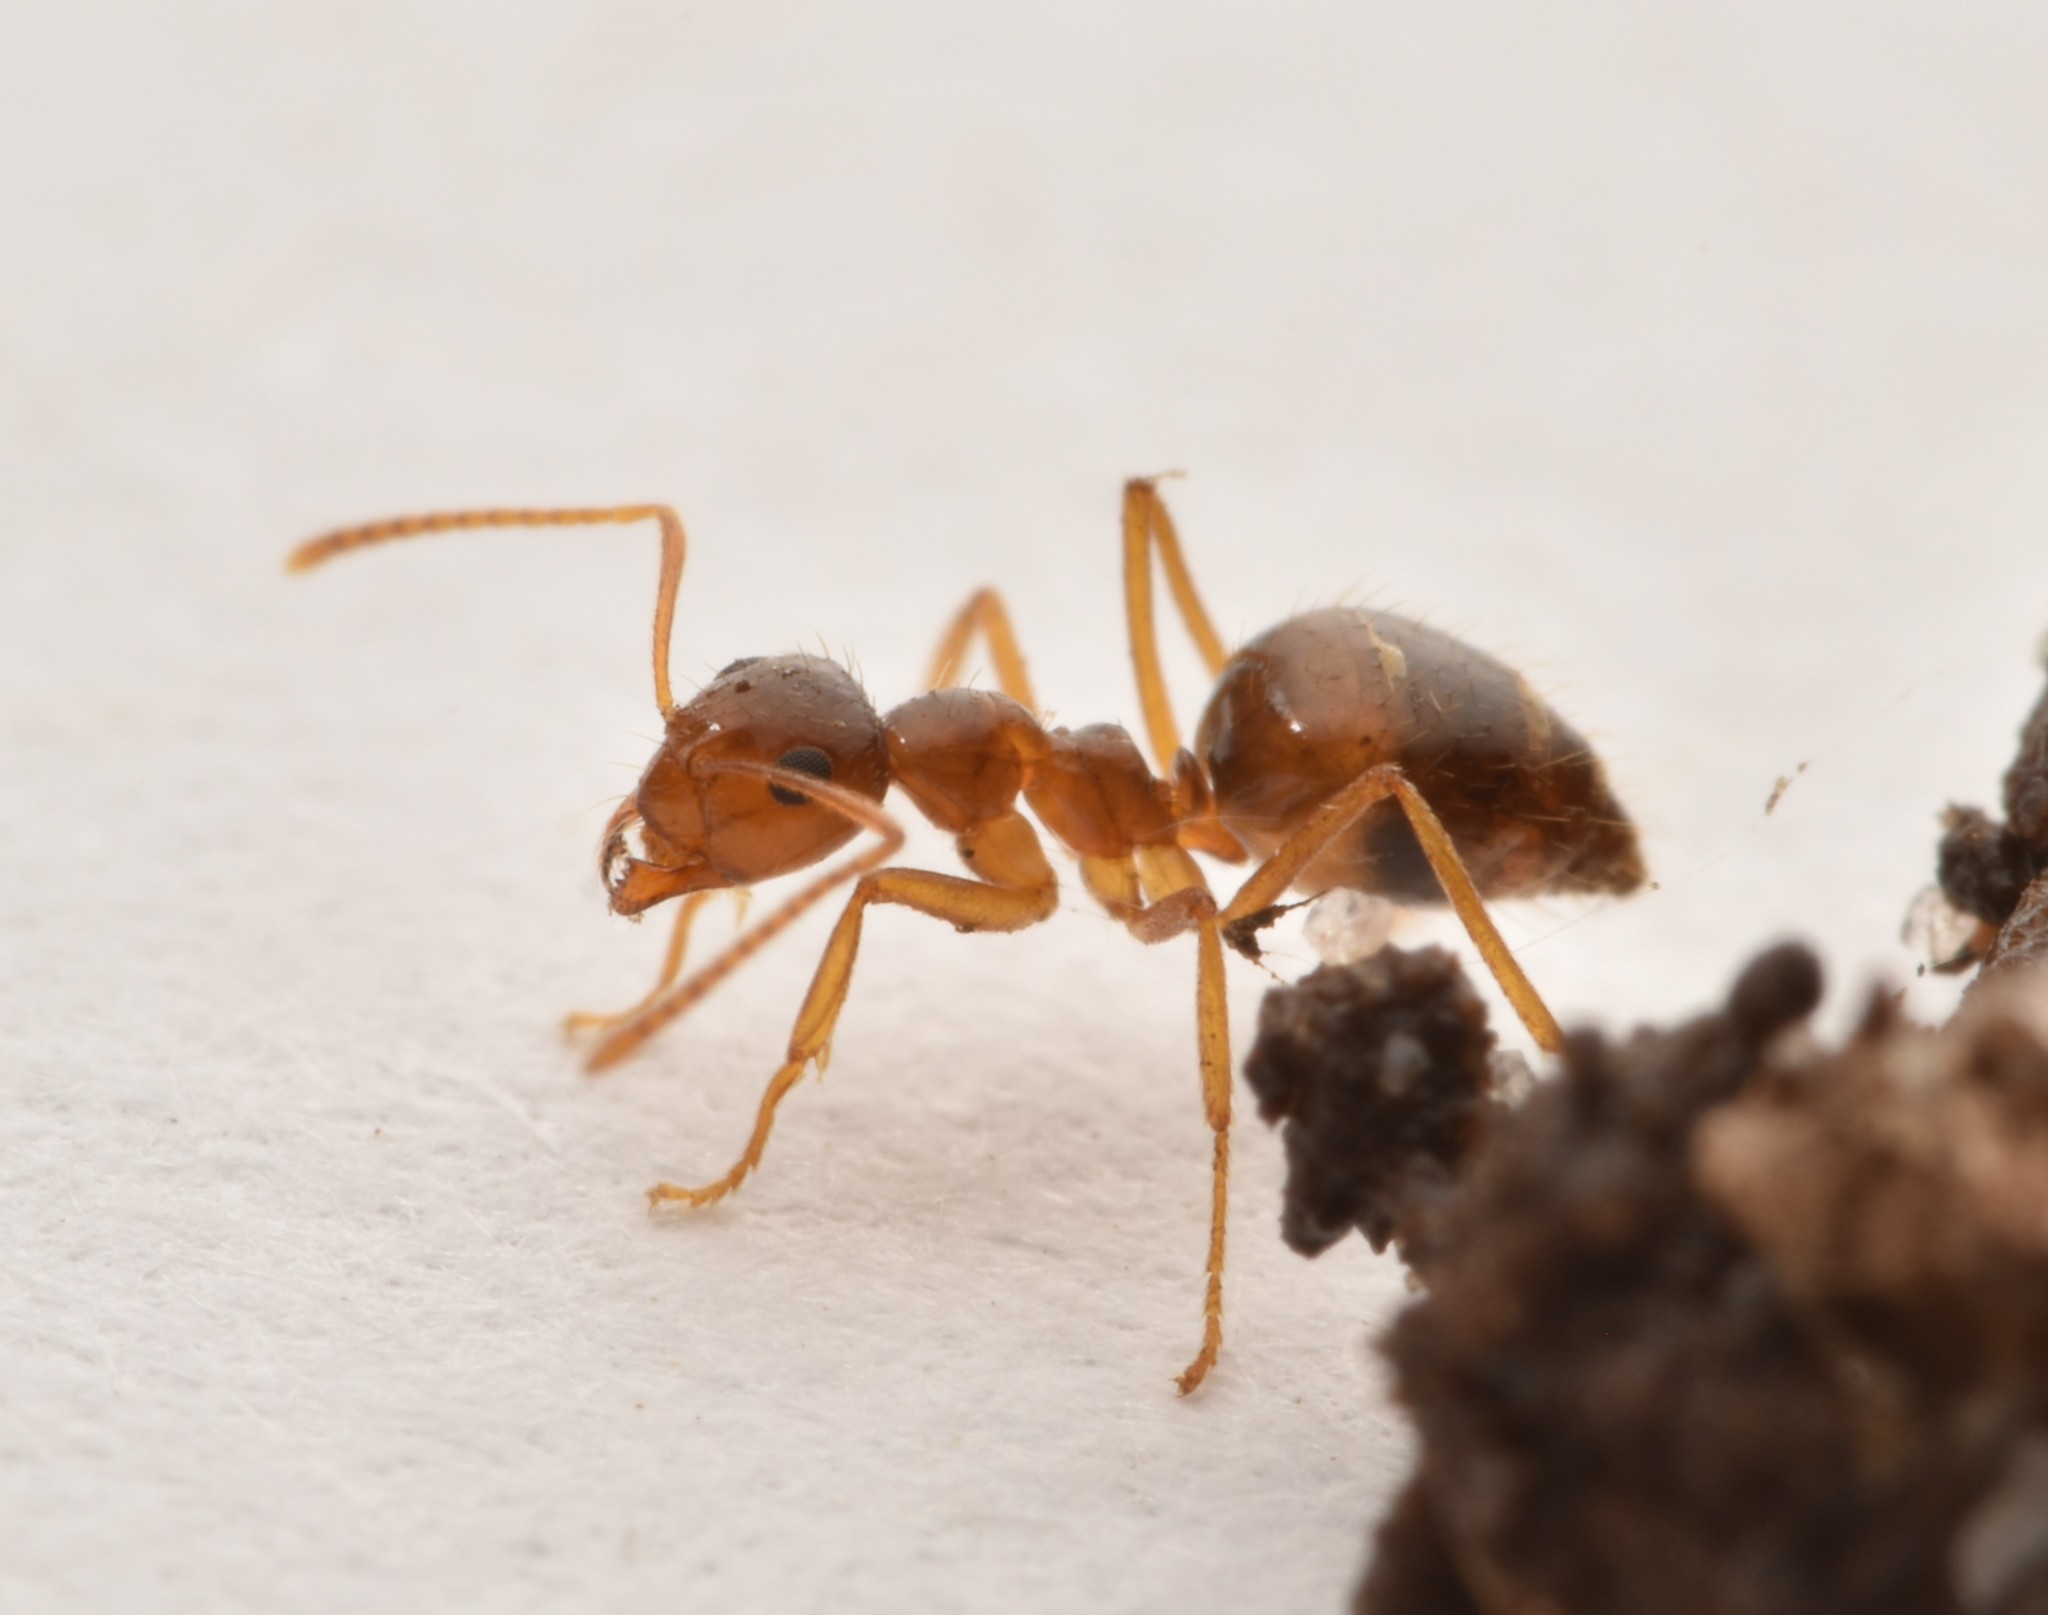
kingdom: Animalia
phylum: Arthropoda
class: Insecta
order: Hymenoptera
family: Formicidae
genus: Prenolepis
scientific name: Prenolepis imparis
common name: Small honey ant
